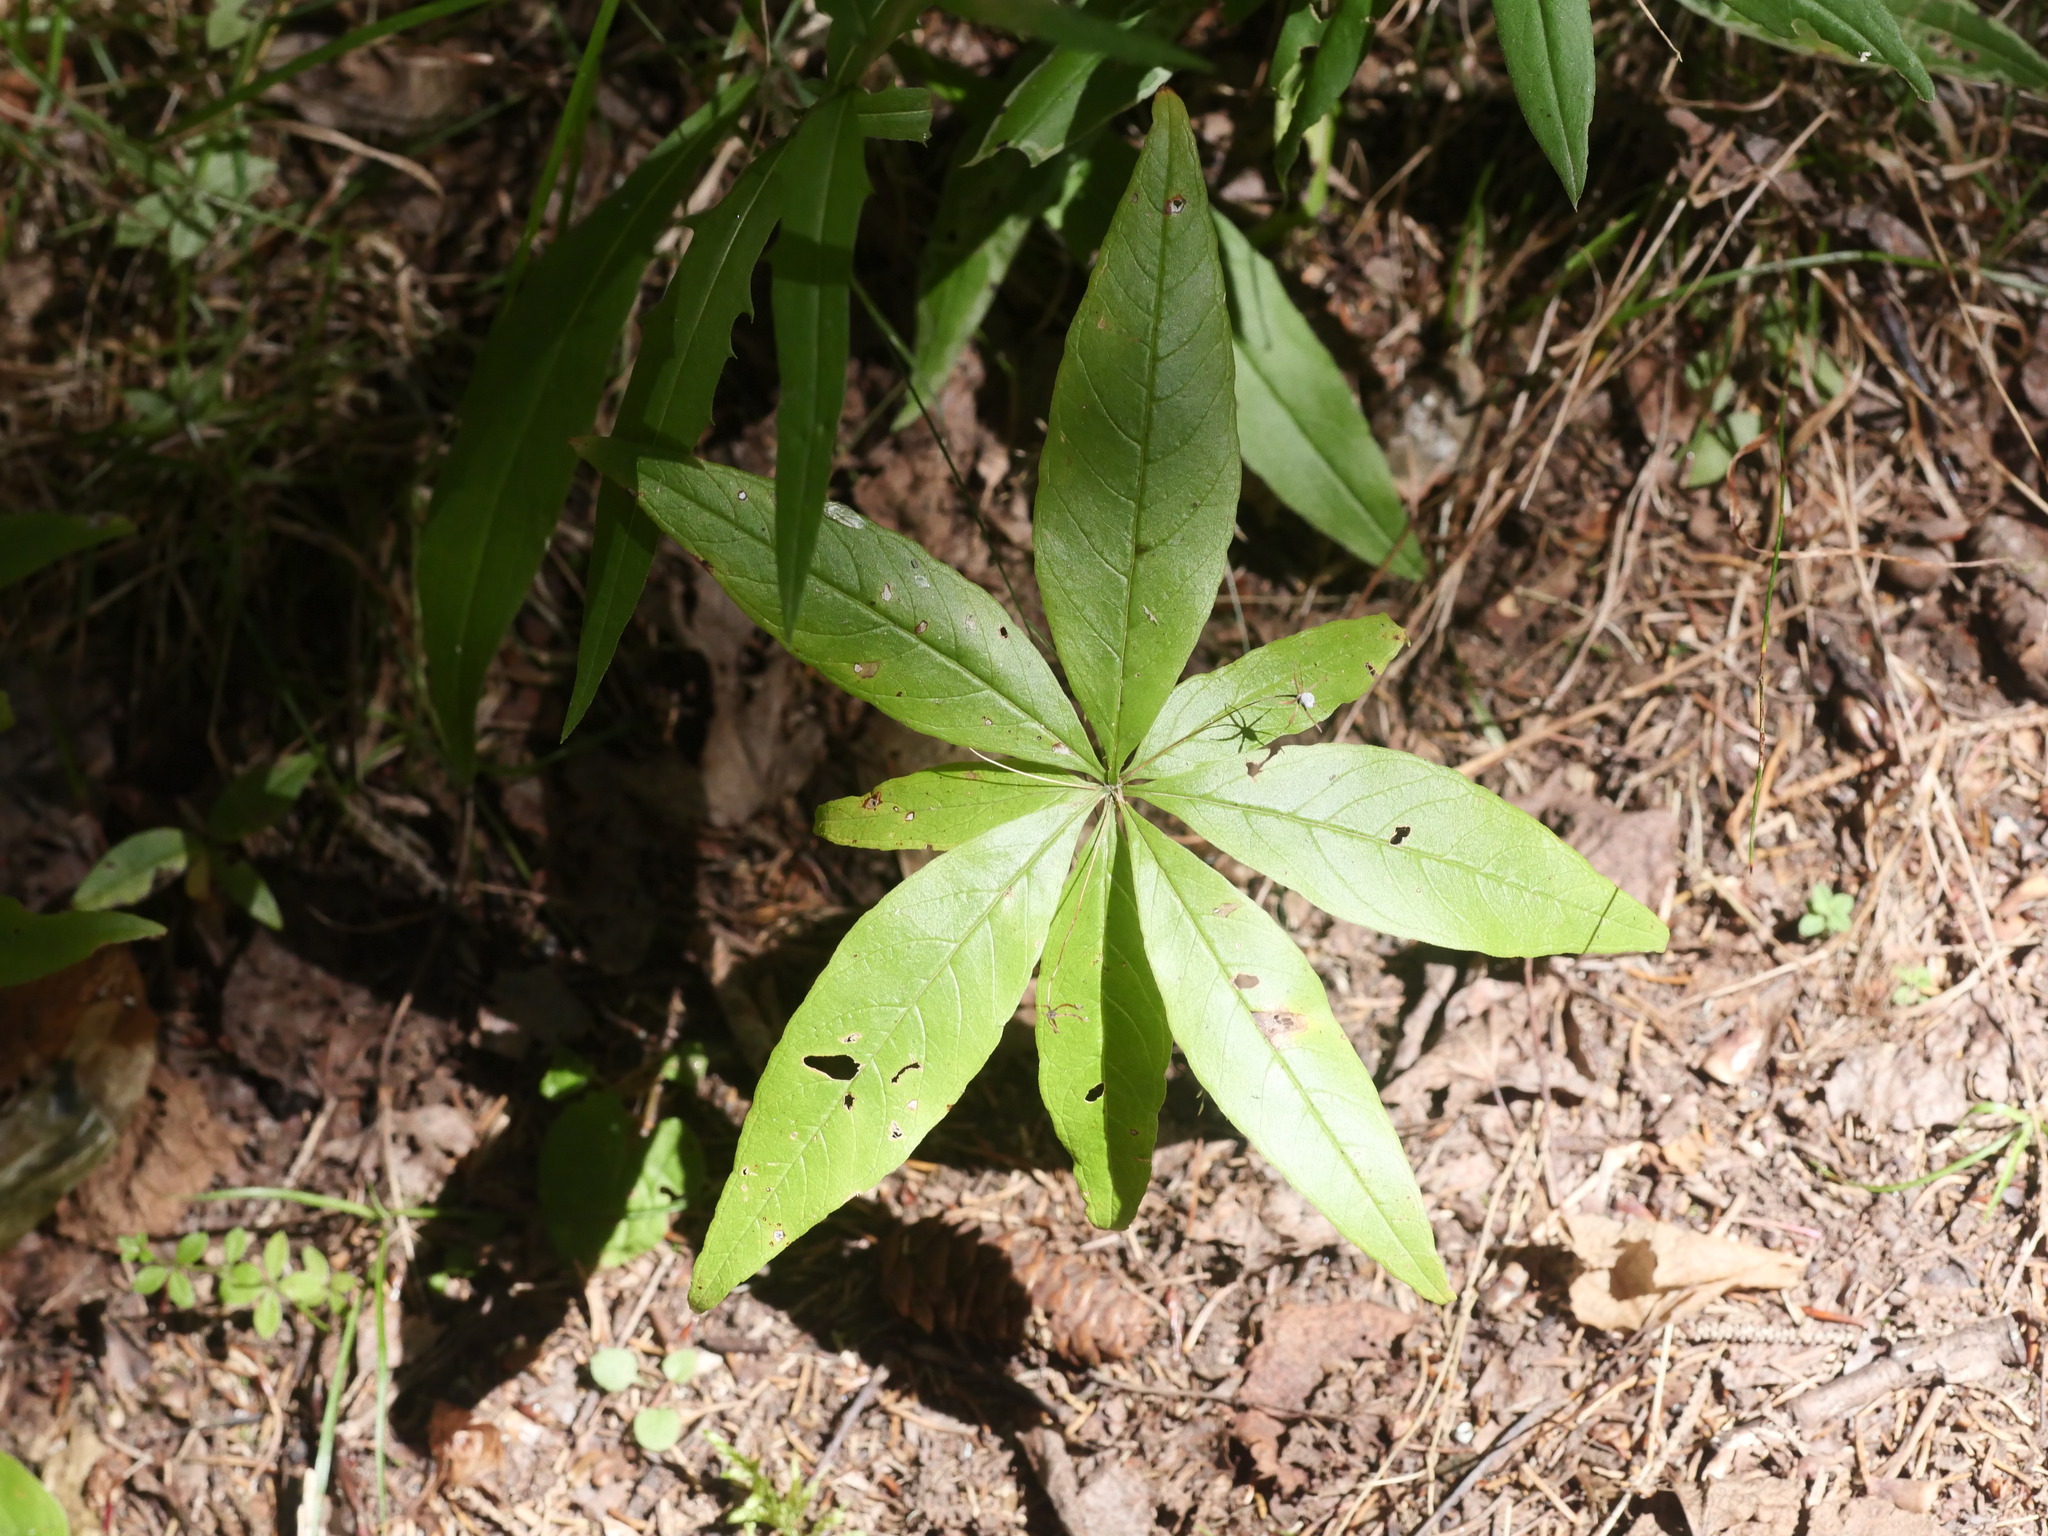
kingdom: Plantae
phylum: Tracheophyta
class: Magnoliopsida
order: Ericales
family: Primulaceae
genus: Lysimachia
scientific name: Lysimachia borealis
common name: American starflower
